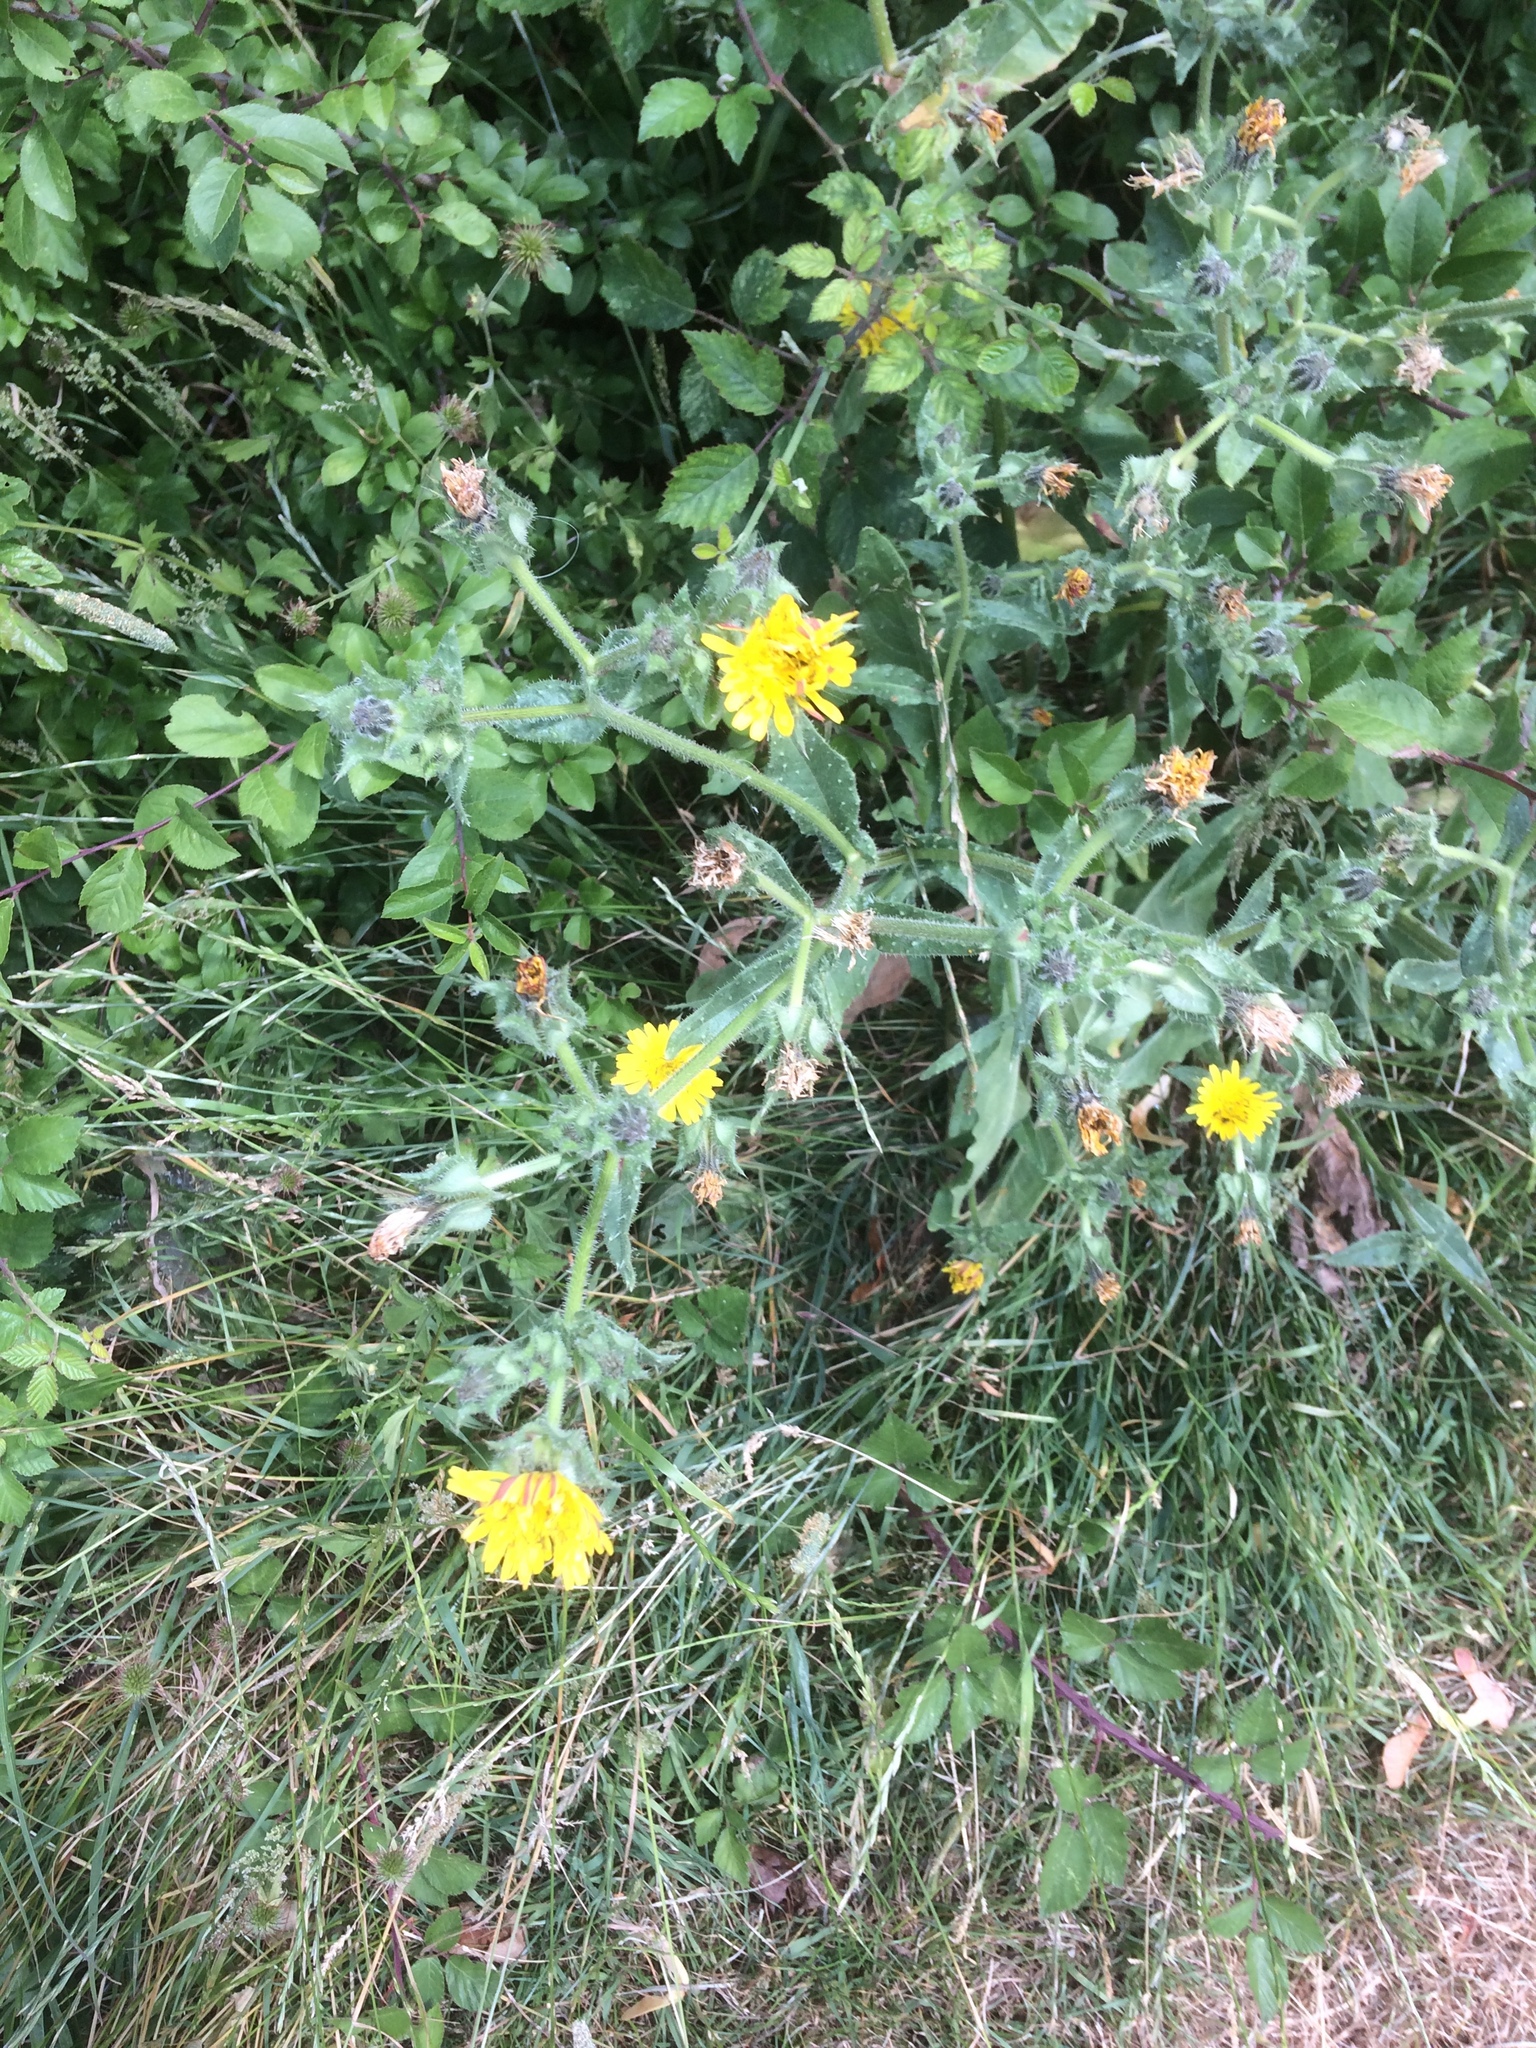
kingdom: Plantae
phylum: Tracheophyta
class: Magnoliopsida
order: Asterales
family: Asteraceae
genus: Helminthotheca
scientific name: Helminthotheca echioides
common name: Ox-tongue
